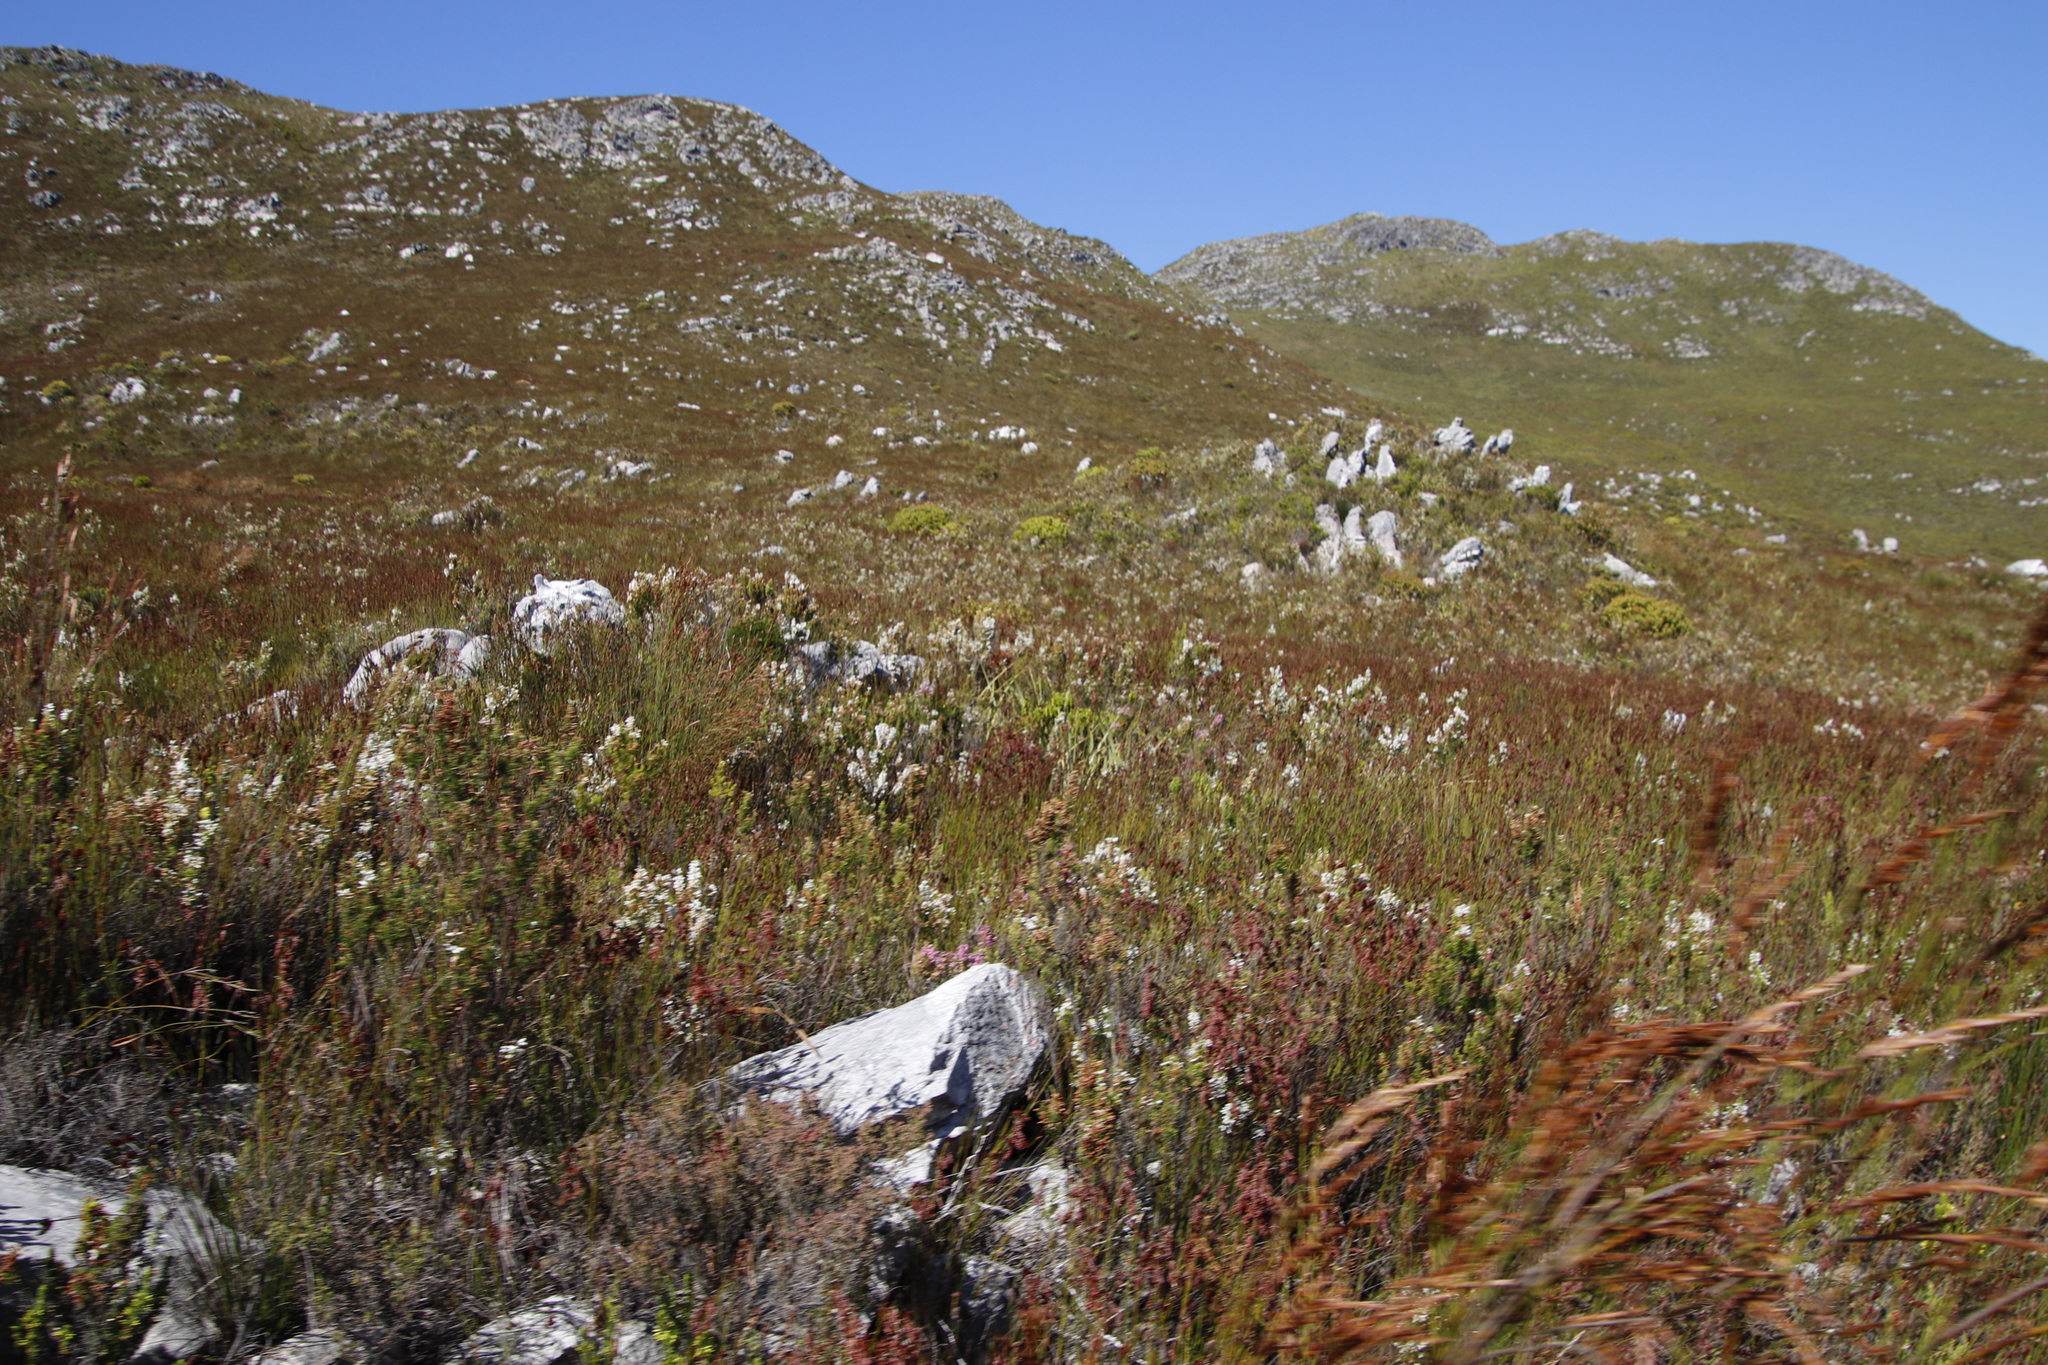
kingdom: Plantae
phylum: Tracheophyta
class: Magnoliopsida
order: Ericales
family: Ericaceae
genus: Erica
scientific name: Erica sitiens
